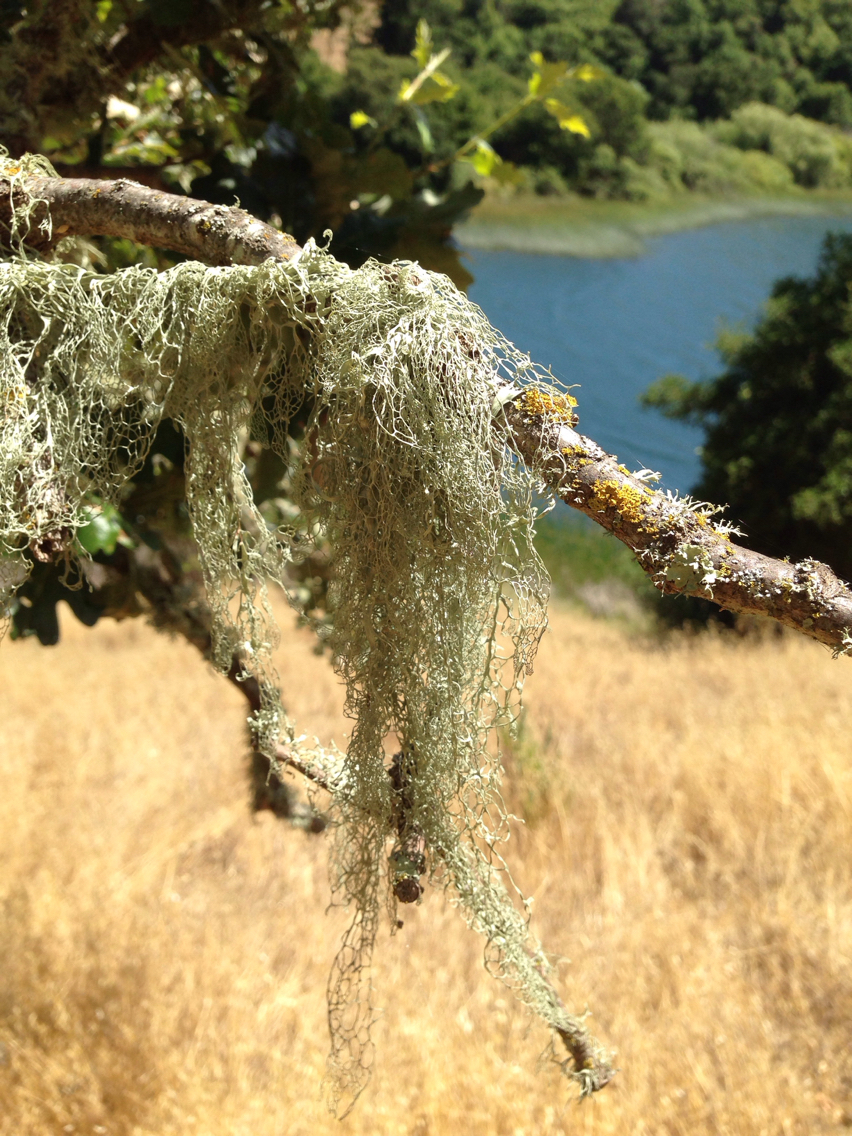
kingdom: Fungi
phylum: Ascomycota
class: Lecanoromycetes
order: Lecanorales
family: Ramalinaceae
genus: Ramalina
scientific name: Ramalina menziesii
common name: Lace lichen
